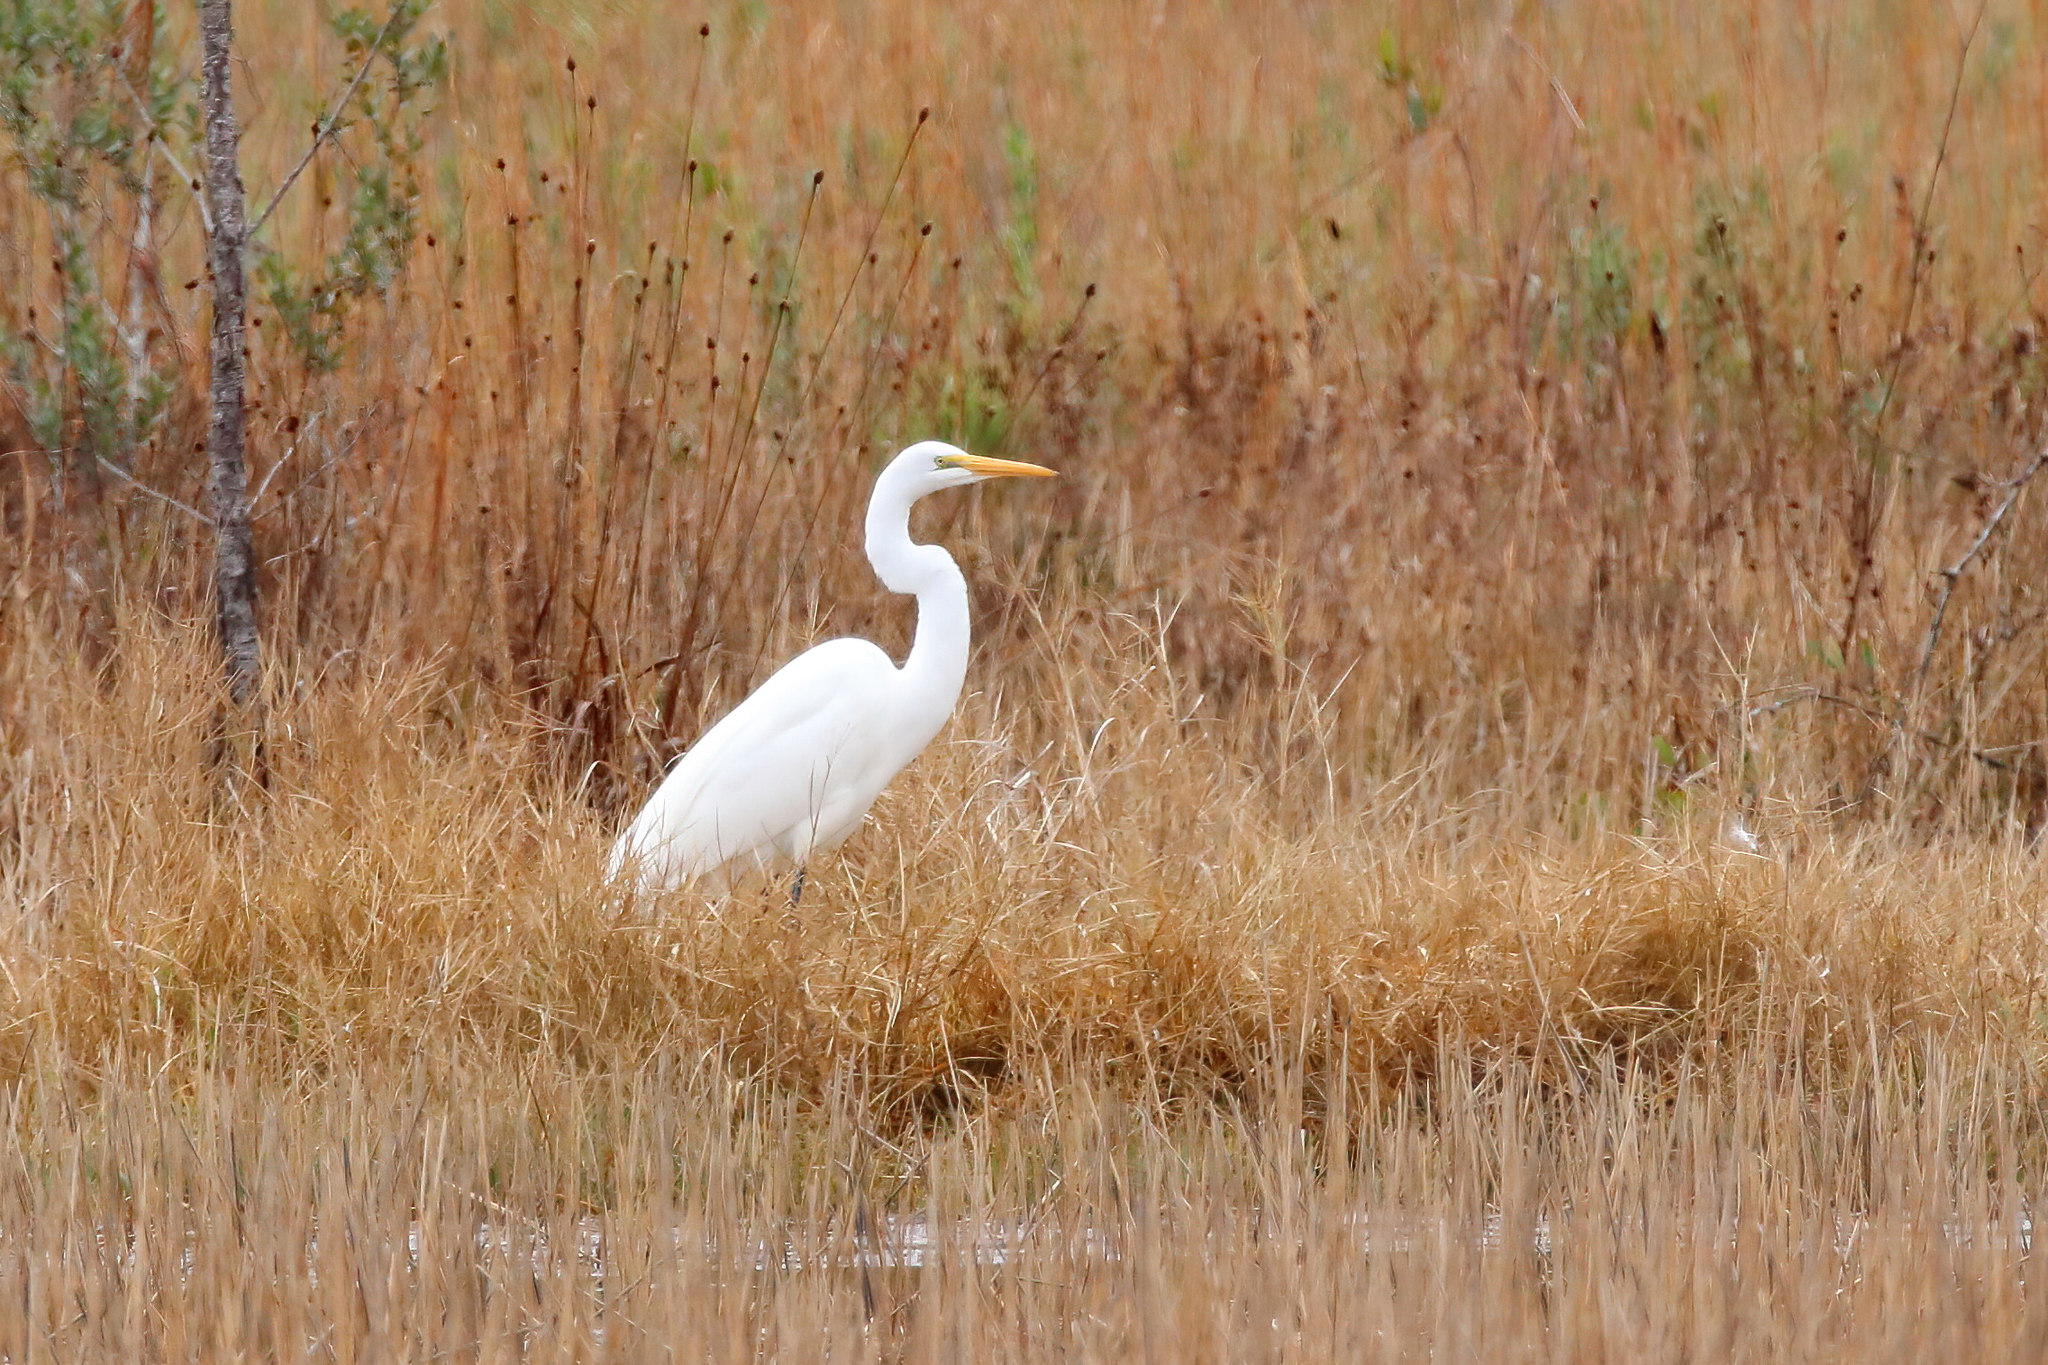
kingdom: Animalia
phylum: Chordata
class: Aves
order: Pelecaniformes
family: Ardeidae
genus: Ardea
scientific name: Ardea alba
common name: Great egret
